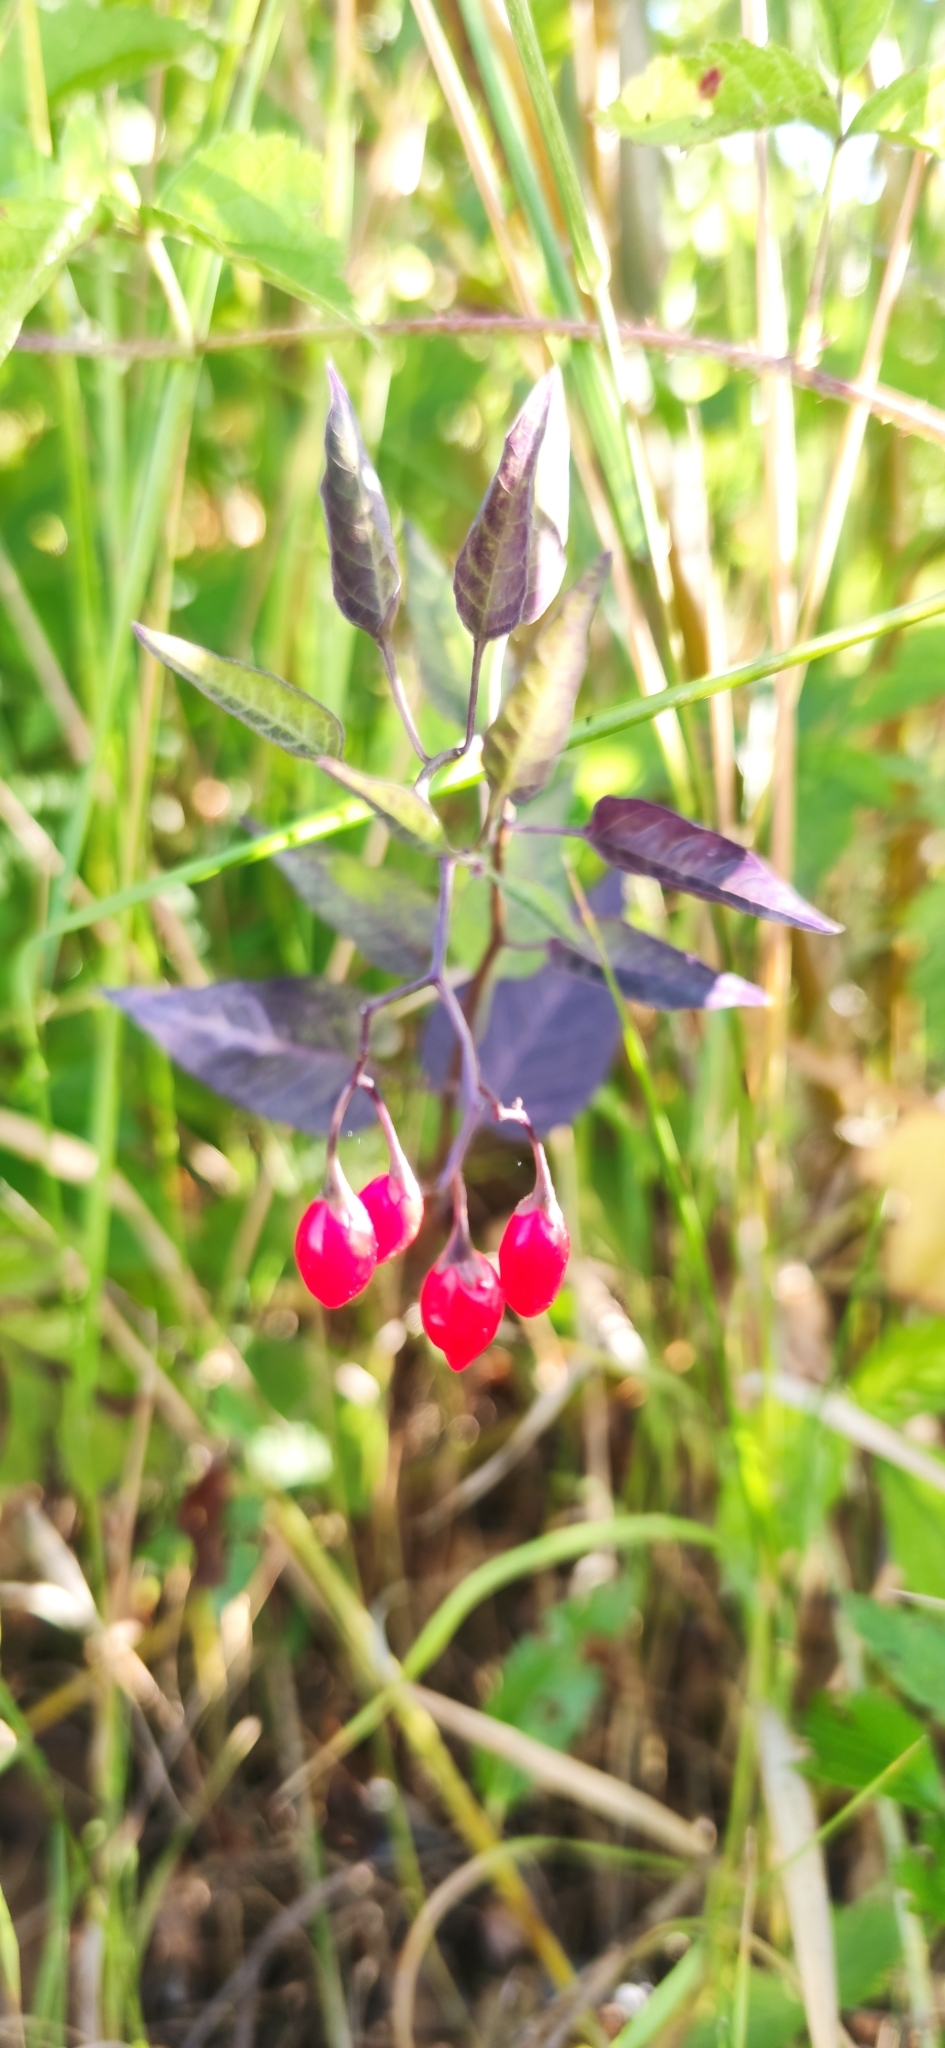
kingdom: Plantae
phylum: Tracheophyta
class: Magnoliopsida
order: Solanales
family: Solanaceae
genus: Solanum
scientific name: Solanum dulcamara
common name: Climbing nightshade
